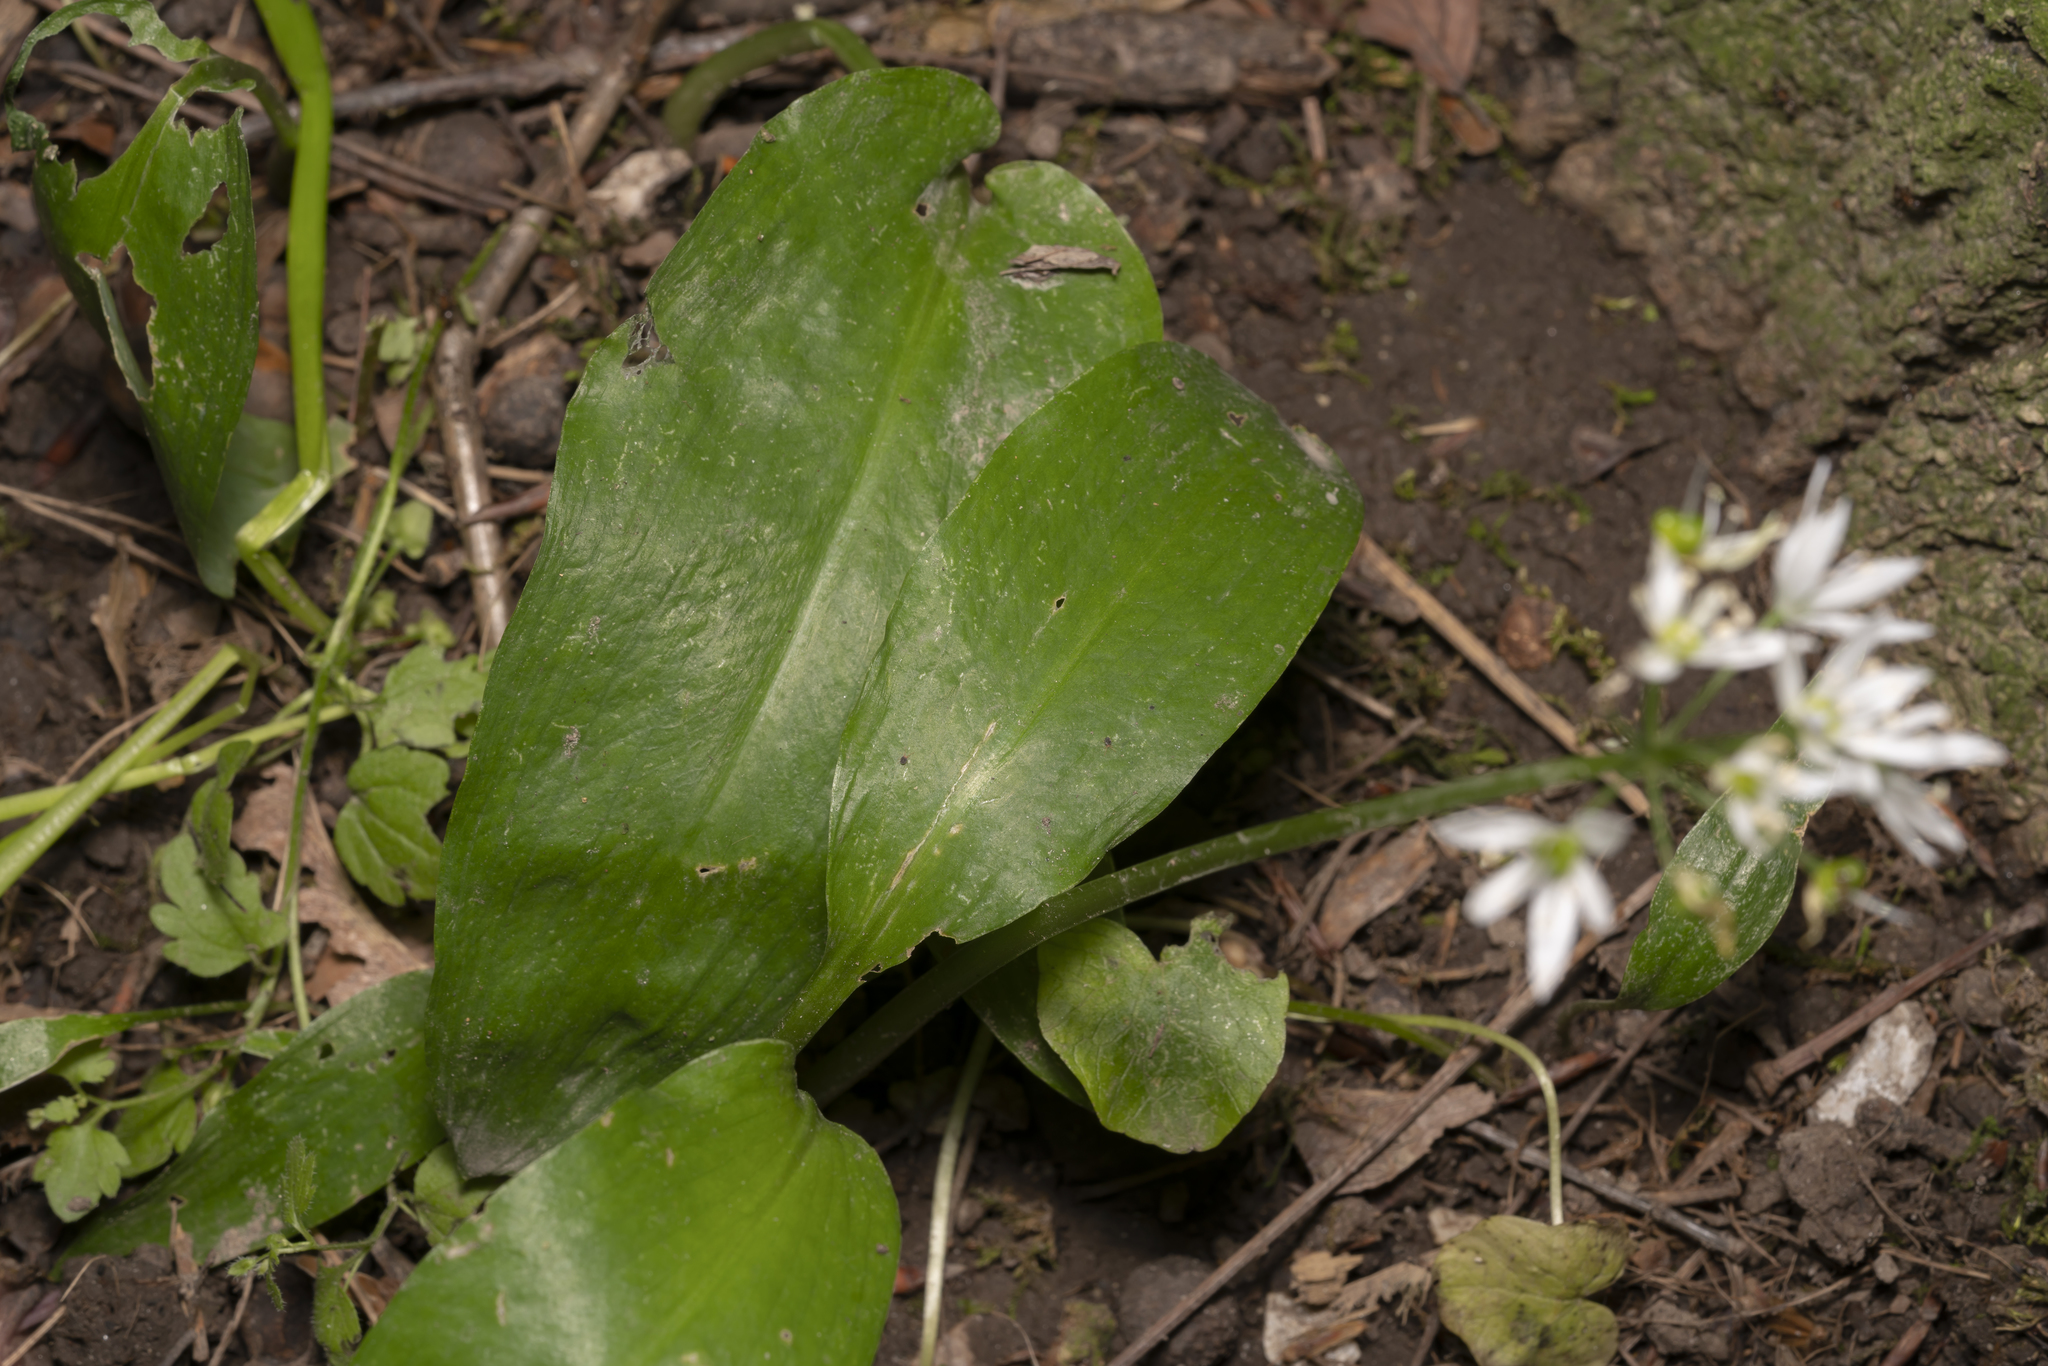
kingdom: Plantae
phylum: Tracheophyta
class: Liliopsida
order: Asparagales
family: Amaryllidaceae
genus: Allium
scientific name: Allium ursinum
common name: Ramsons
